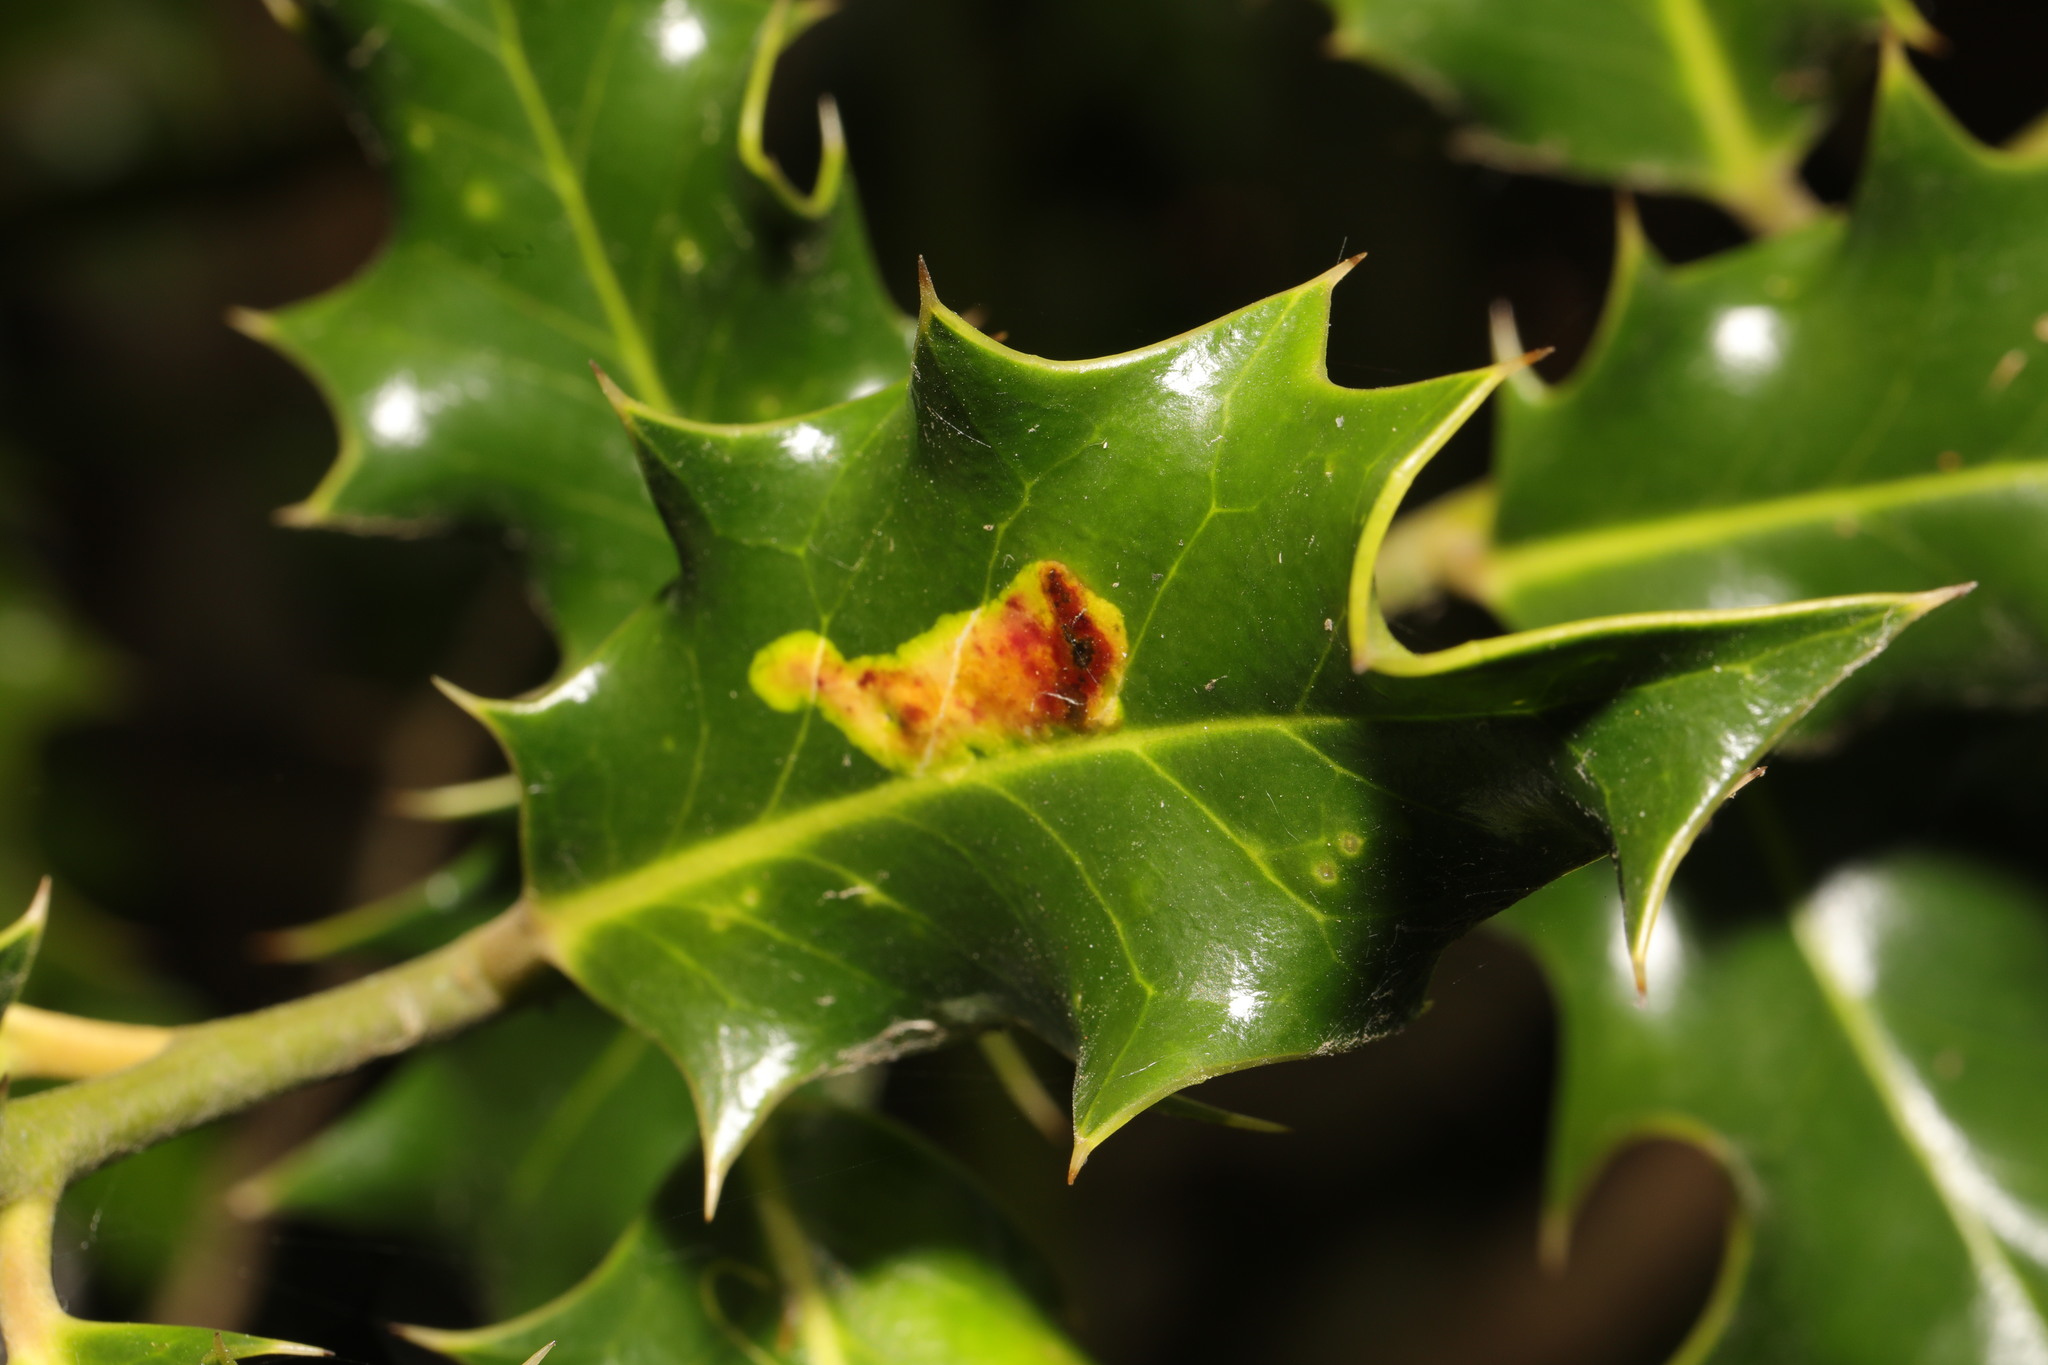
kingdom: Animalia
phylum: Arthropoda
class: Insecta
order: Diptera
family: Agromyzidae
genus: Phytomyza
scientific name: Phytomyza ilicis
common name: Holly leafminer
